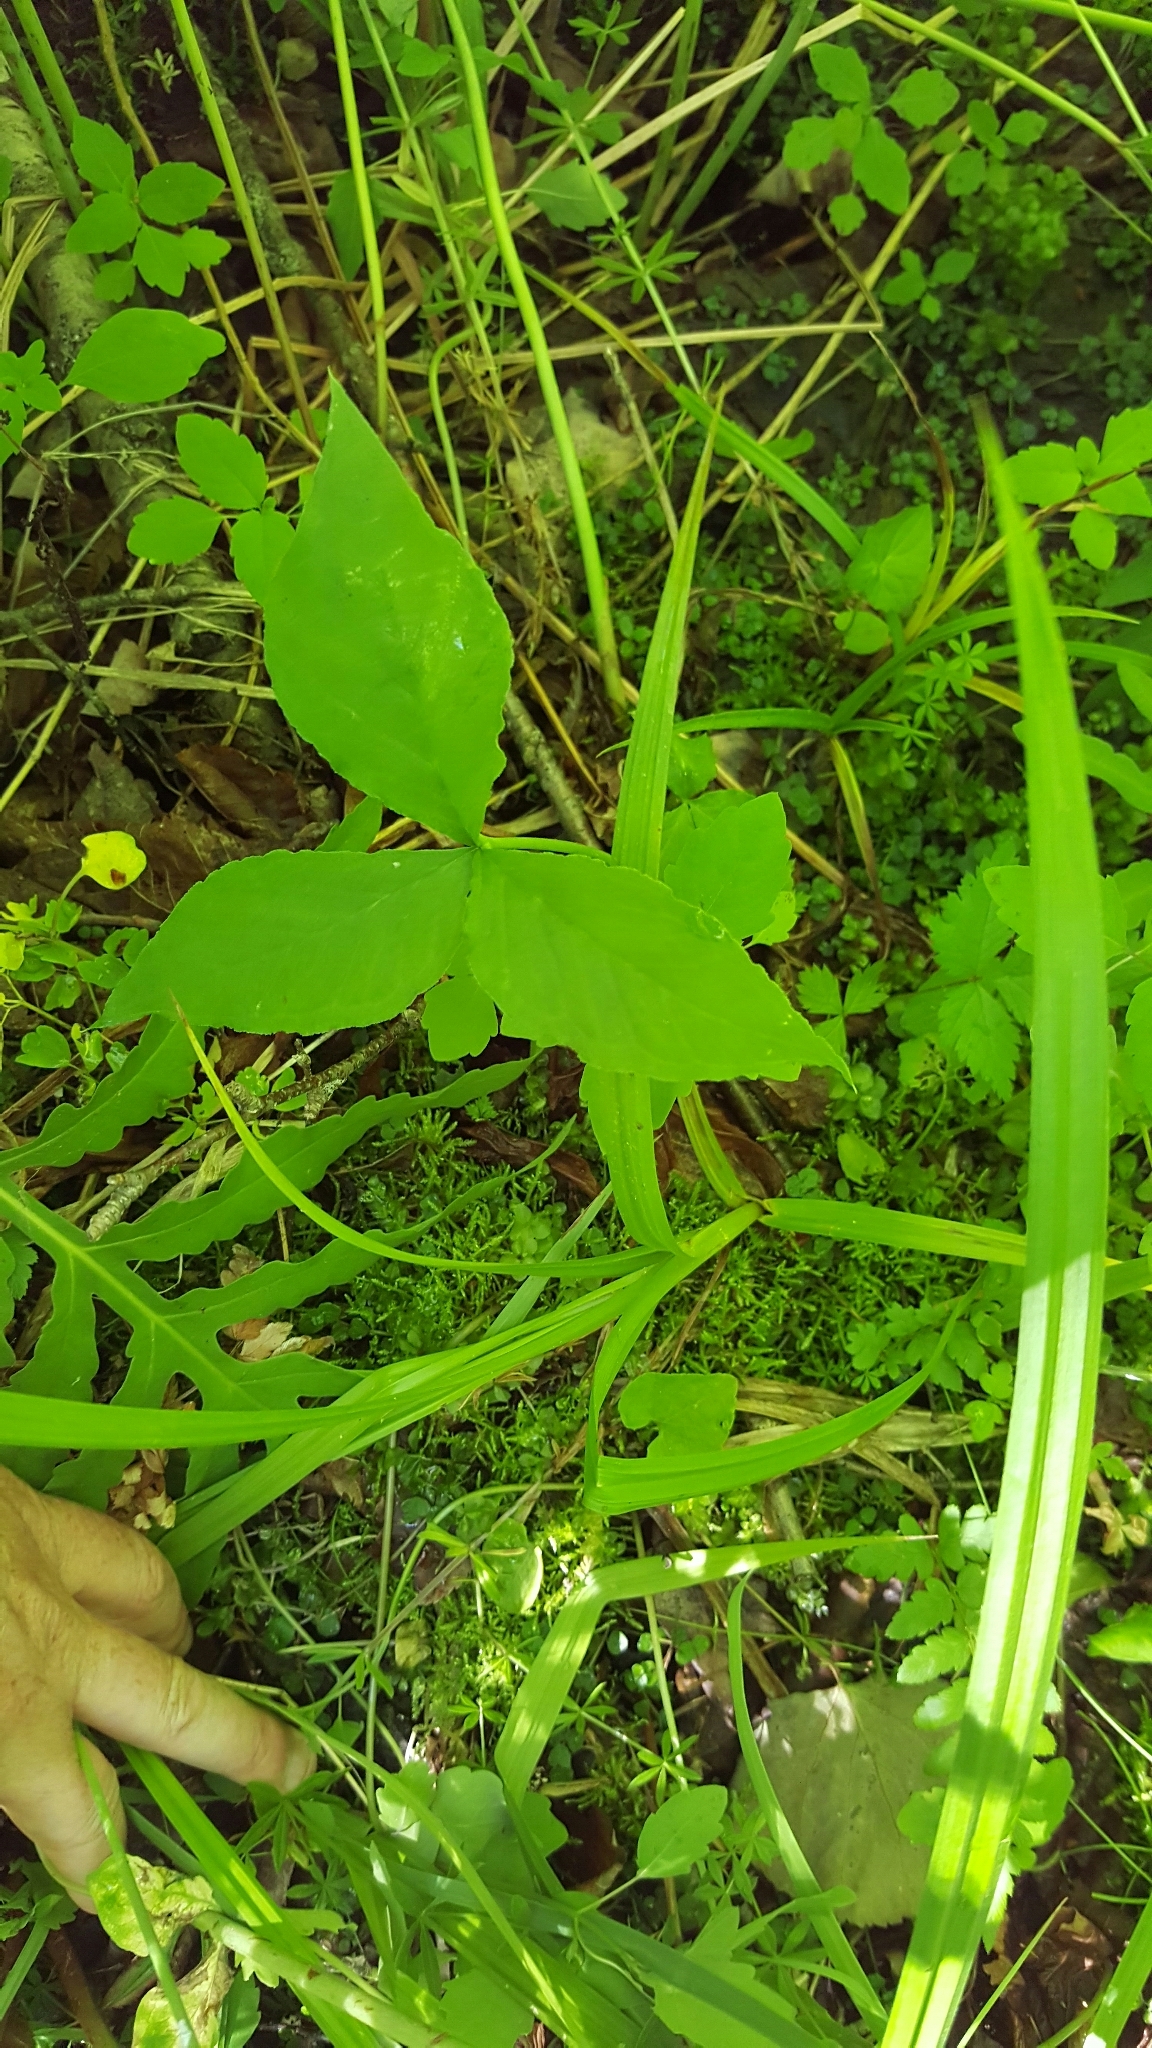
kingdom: Plantae
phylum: Tracheophyta
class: Liliopsida
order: Alismatales
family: Araceae
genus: Arisaema
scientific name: Arisaema triphyllum
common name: Jack-in-the-pulpit
